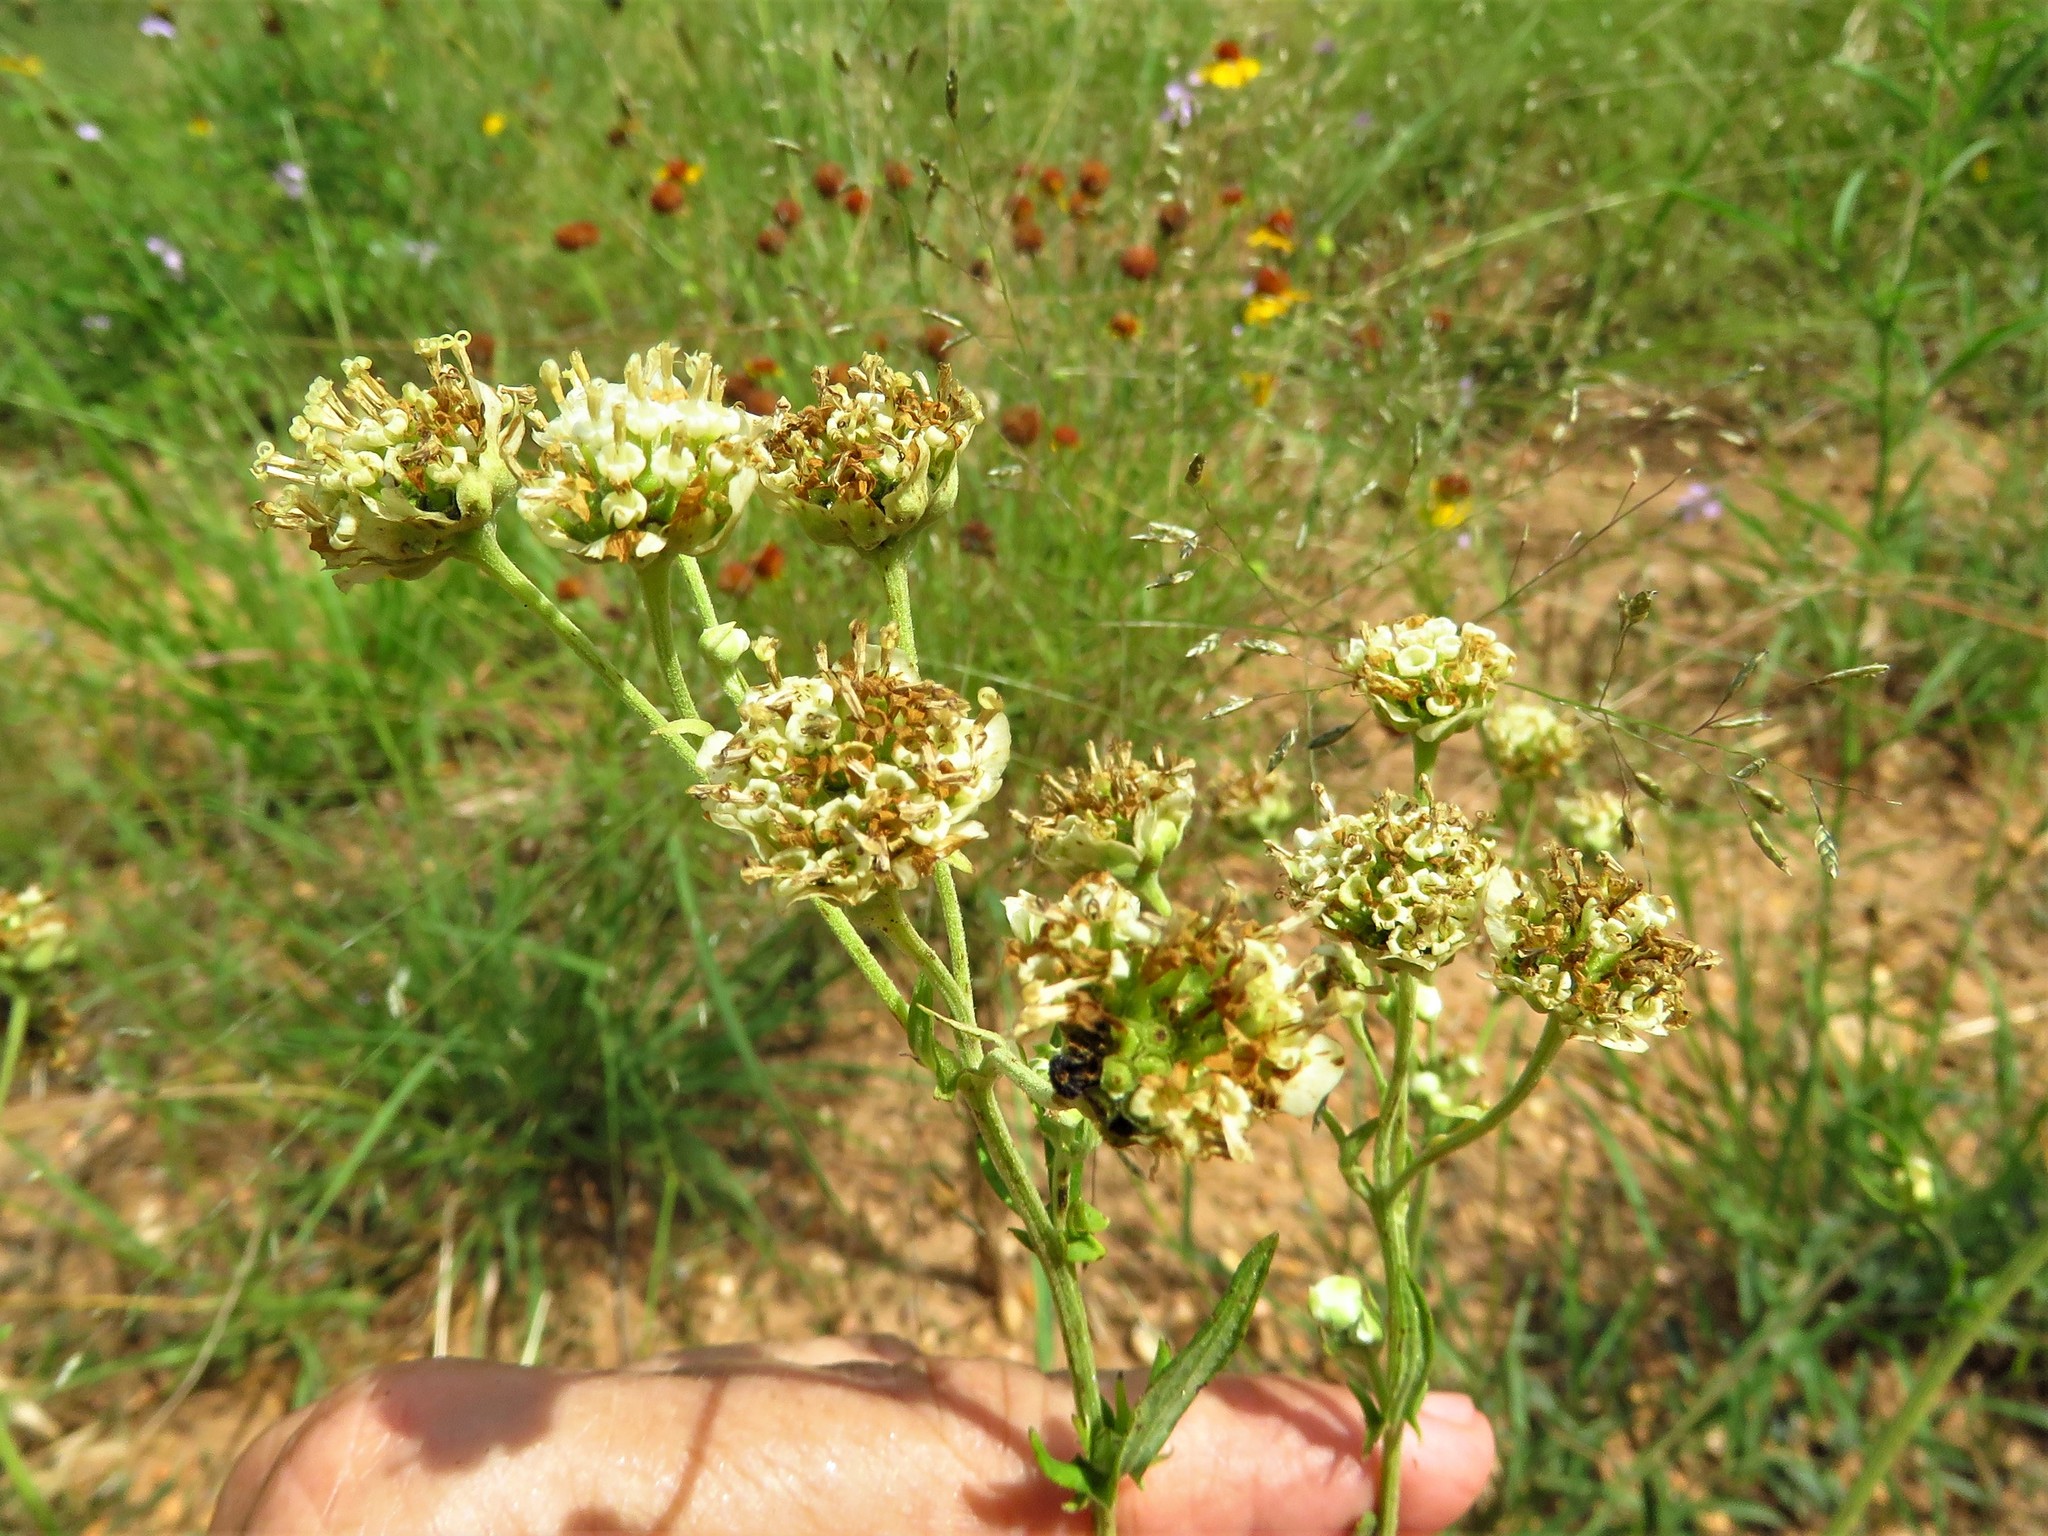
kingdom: Plantae
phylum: Tracheophyta
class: Magnoliopsida
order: Asterales
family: Asteraceae
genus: Hymenopappus
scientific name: Hymenopappus scabiosaeus
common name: Carolina woollywhite
